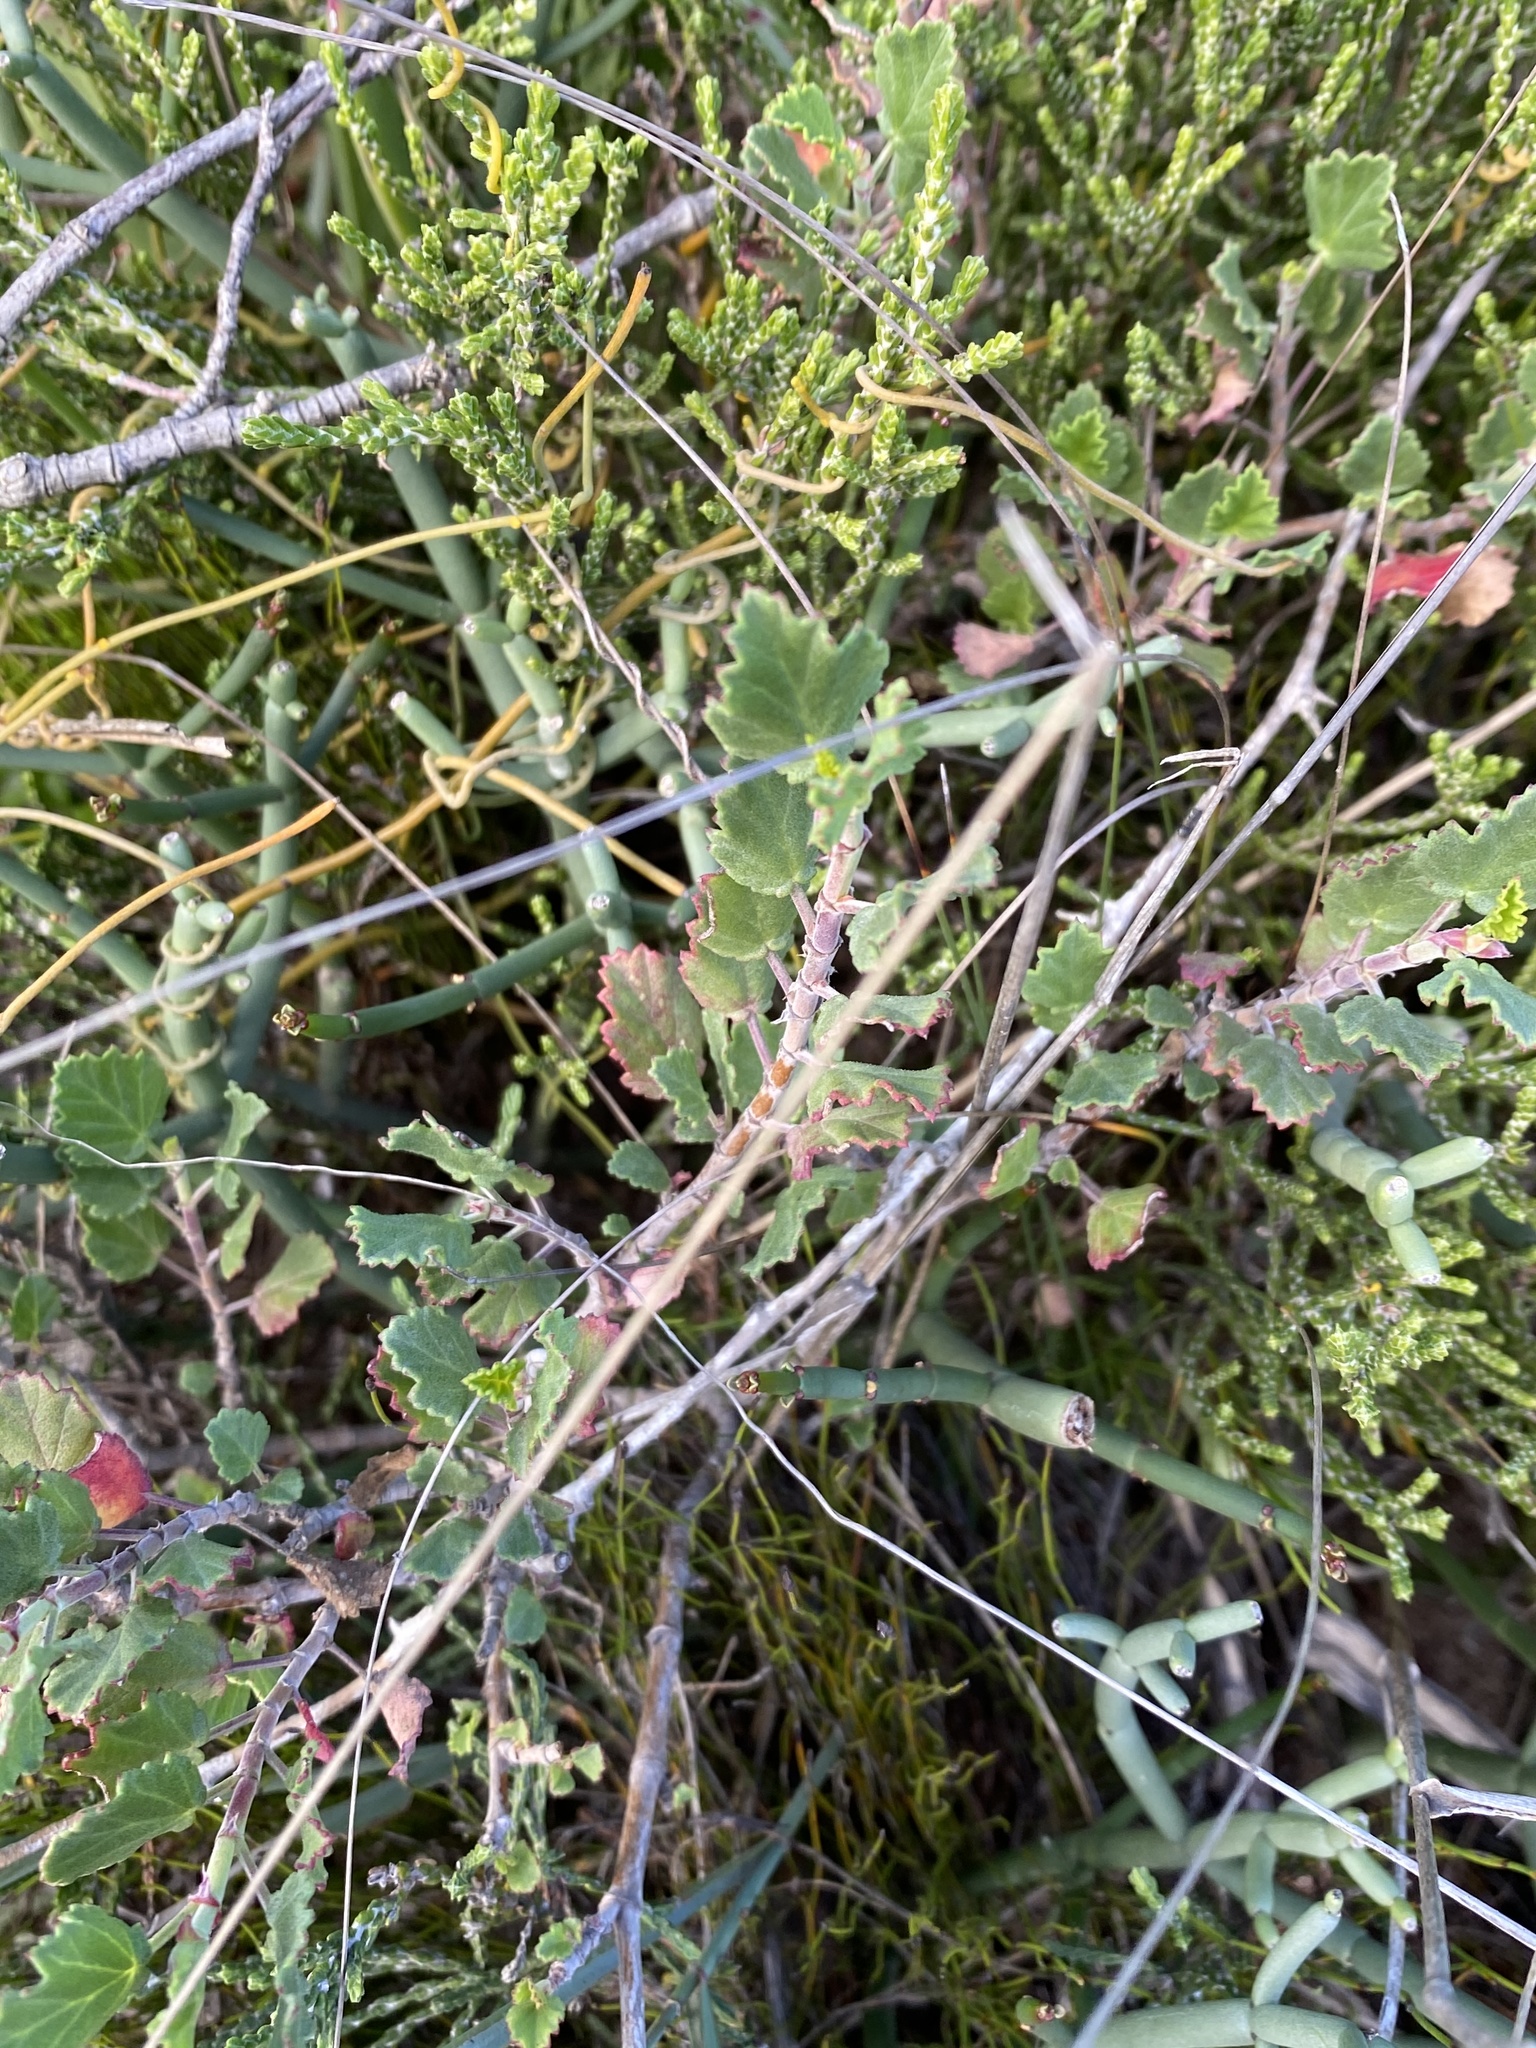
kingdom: Plantae
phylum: Tracheophyta
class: Magnoliopsida
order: Geraniales
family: Geraniaceae
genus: Pelargonium
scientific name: Pelargonium betulinum
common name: Birch-leaf pelargonium
